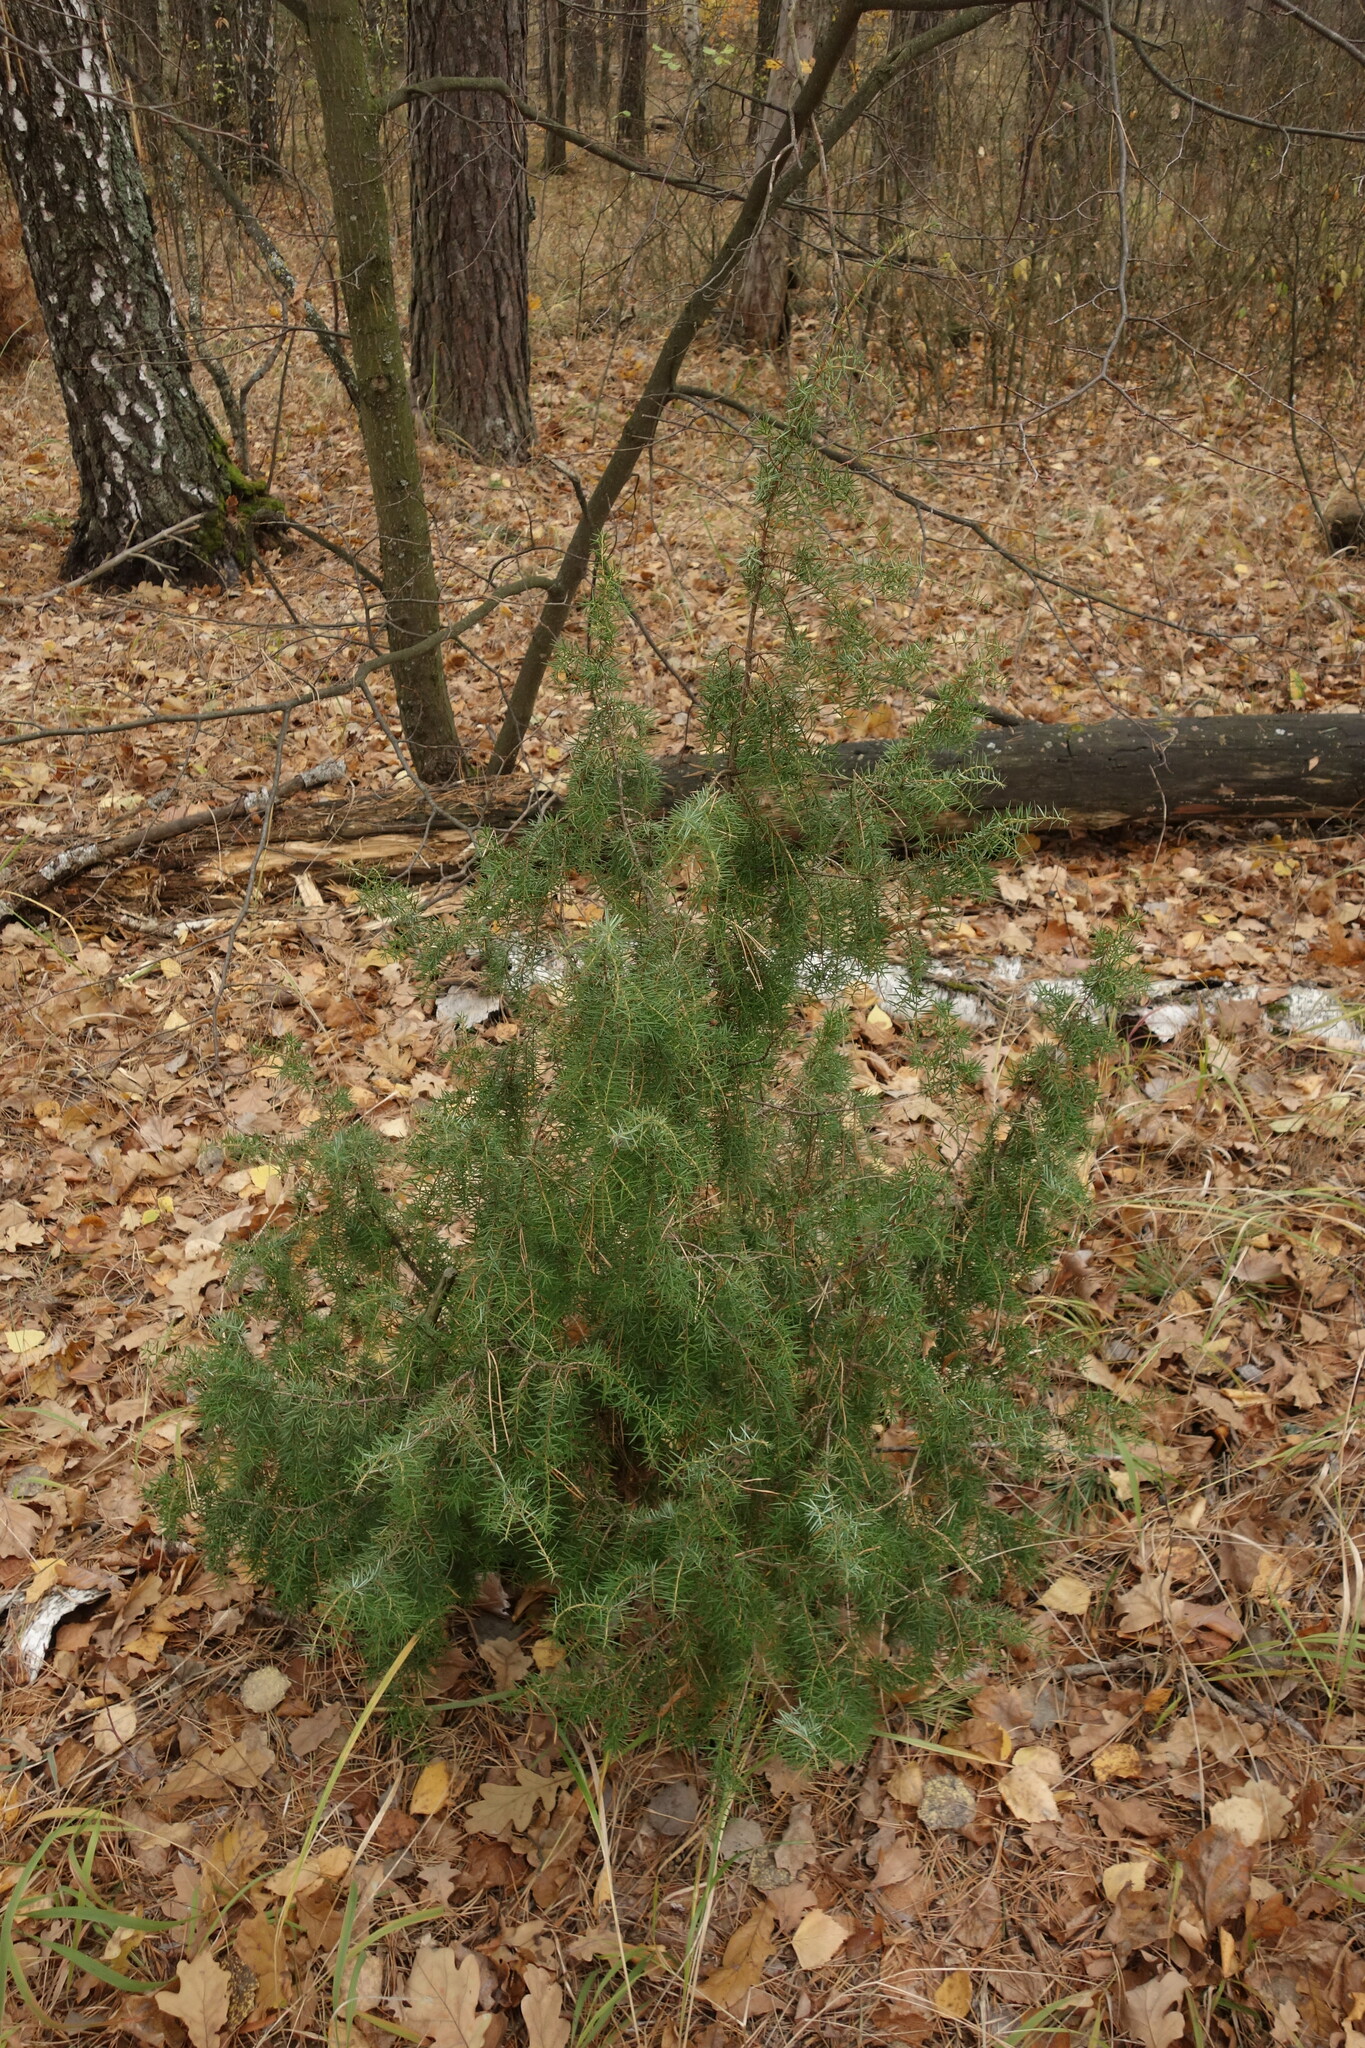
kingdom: Plantae
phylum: Tracheophyta
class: Pinopsida
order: Pinales
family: Cupressaceae
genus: Juniperus
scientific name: Juniperus communis
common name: Common juniper
